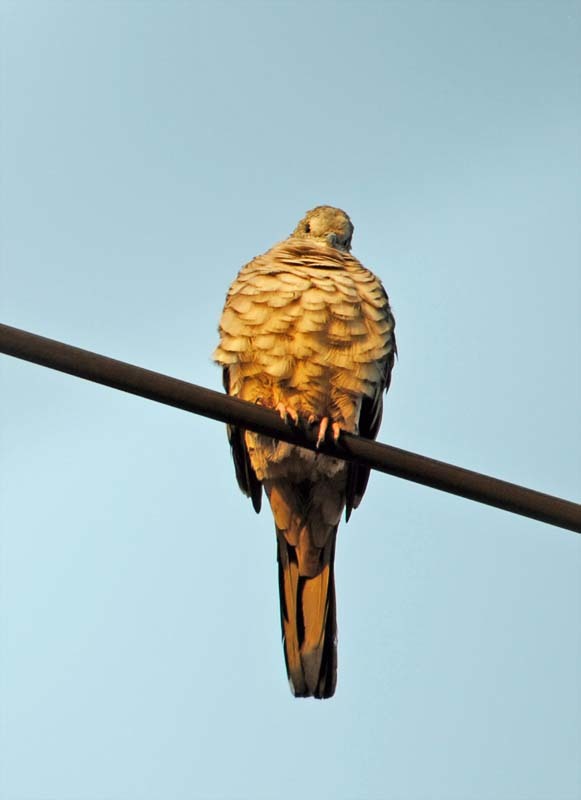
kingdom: Animalia
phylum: Chordata
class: Aves
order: Columbiformes
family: Columbidae
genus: Columbina
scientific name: Columbina inca
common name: Inca dove
